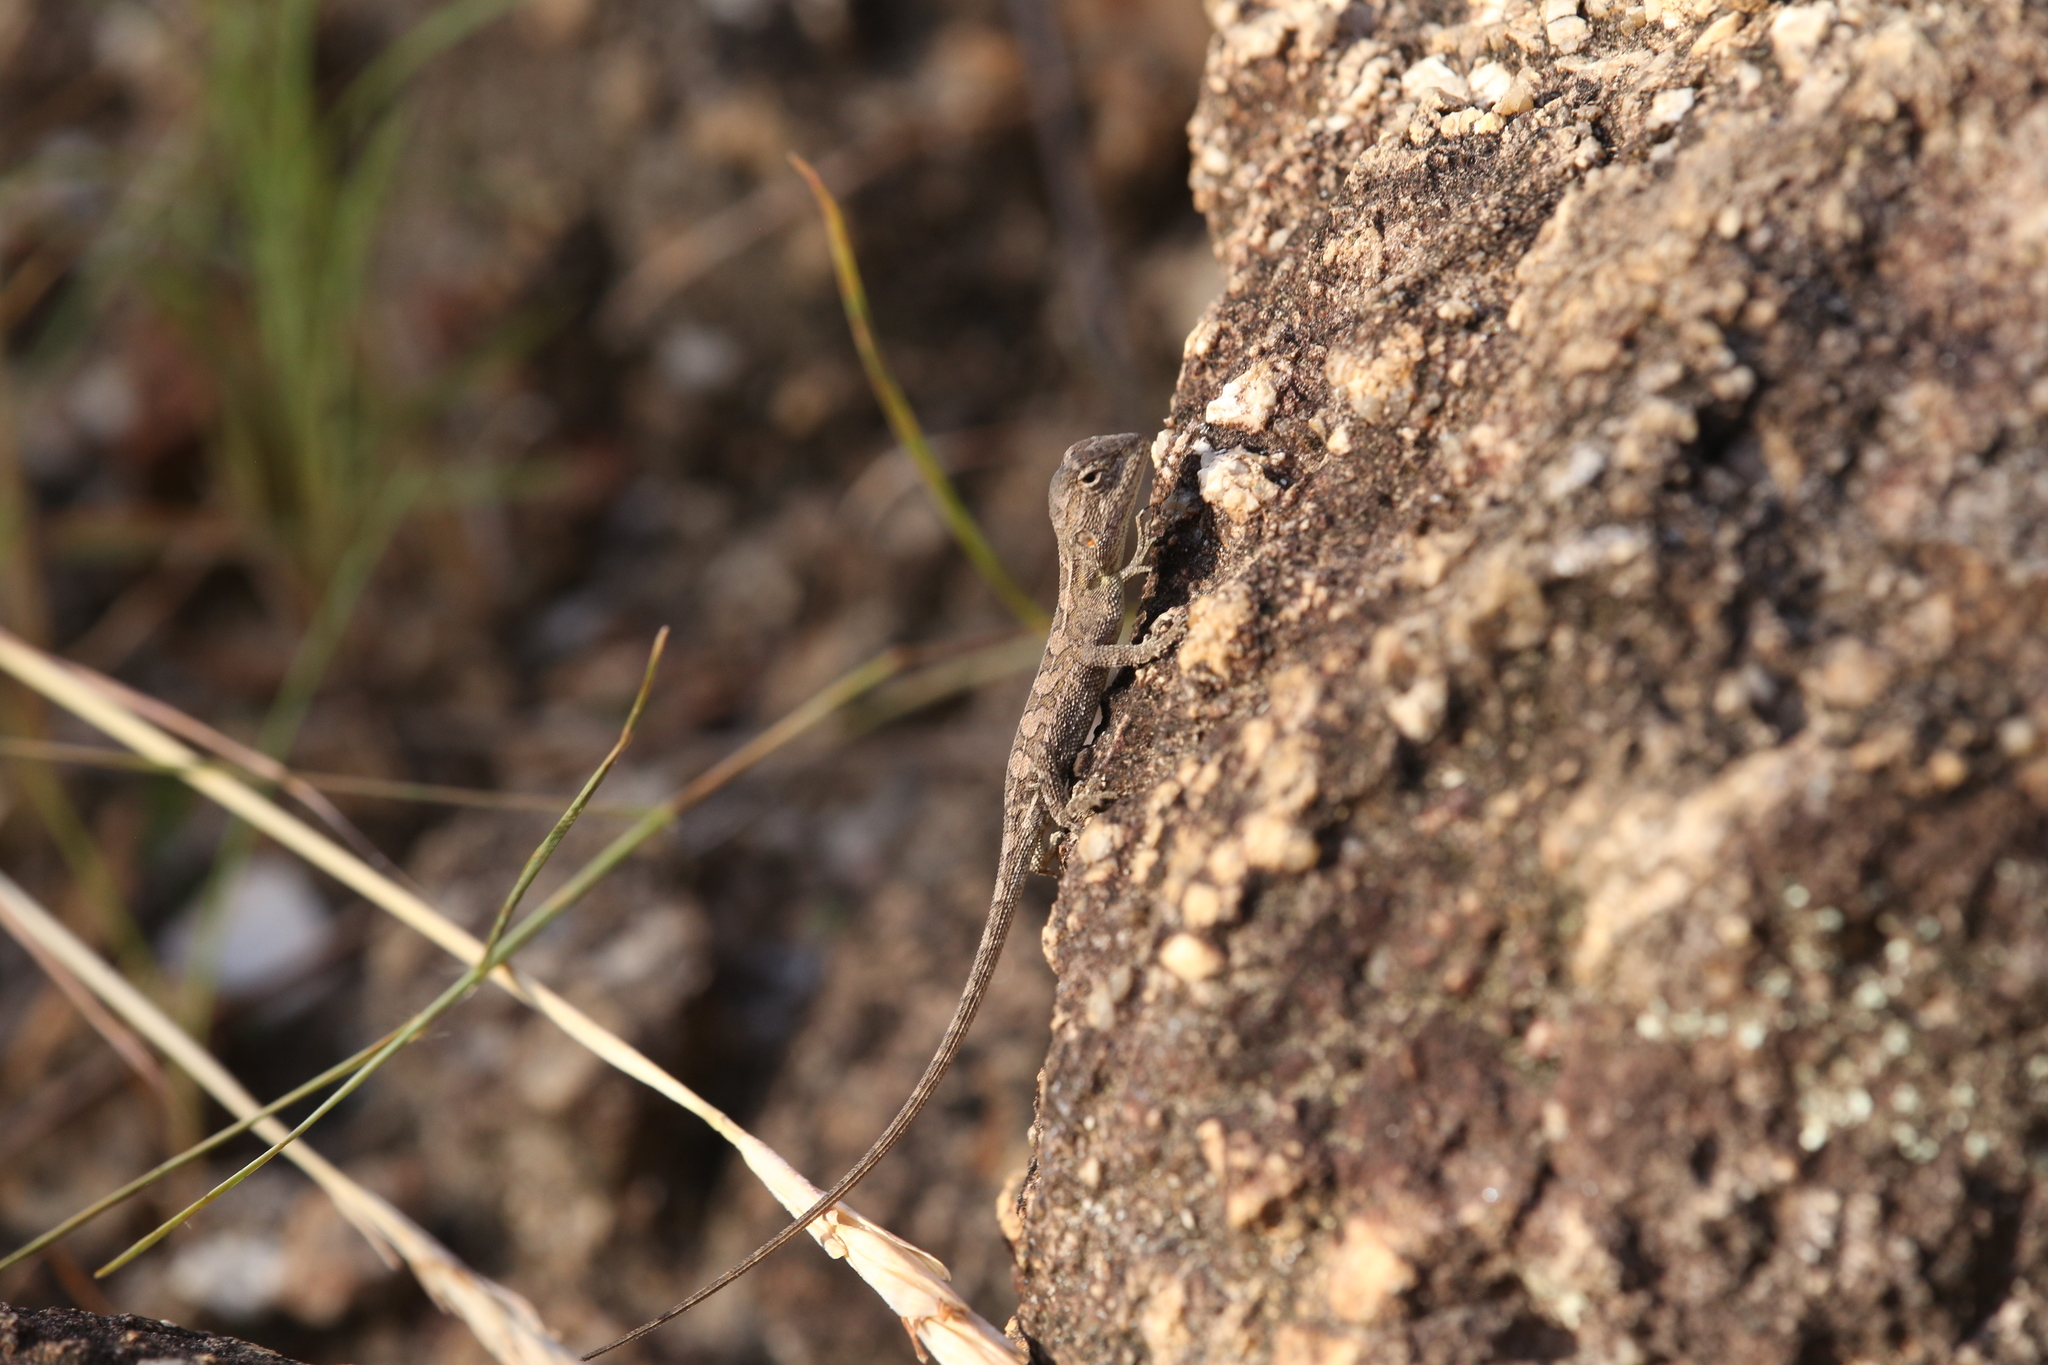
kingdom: Animalia
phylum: Chordata
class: Squamata
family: Agamidae
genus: Diporiphora
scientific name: Diporiphora australis
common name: Eastern two-line dragon
